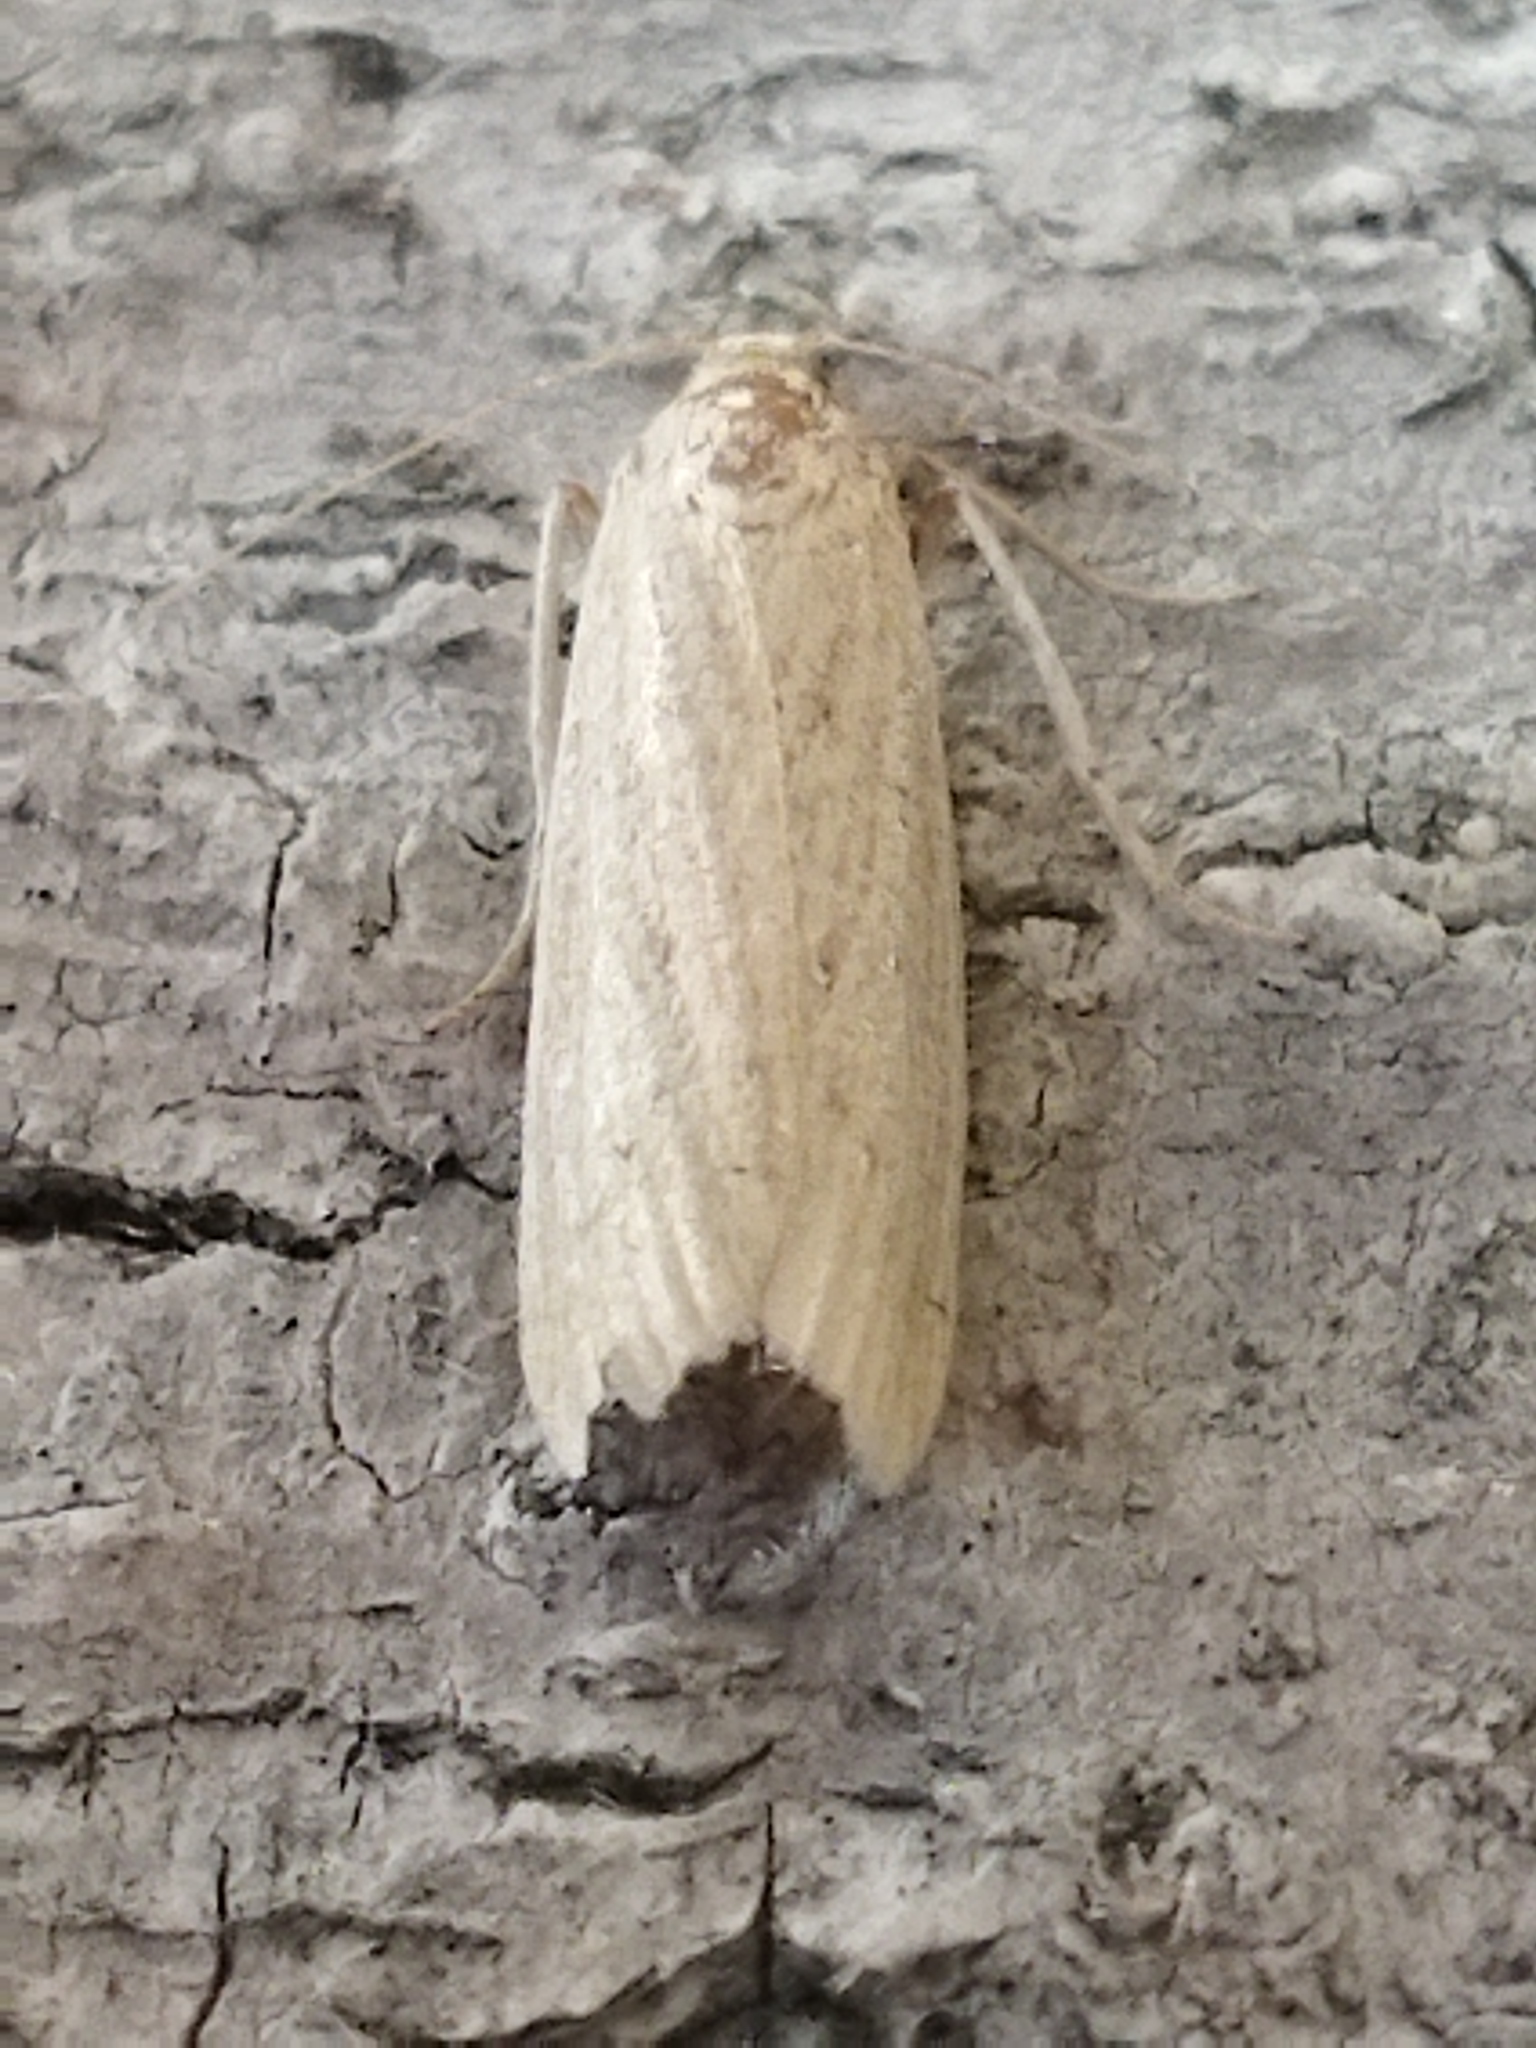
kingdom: Animalia
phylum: Arthropoda
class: Insecta
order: Lepidoptera
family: Pyralidae
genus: Ematheudes
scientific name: Ematheudes punctellus
